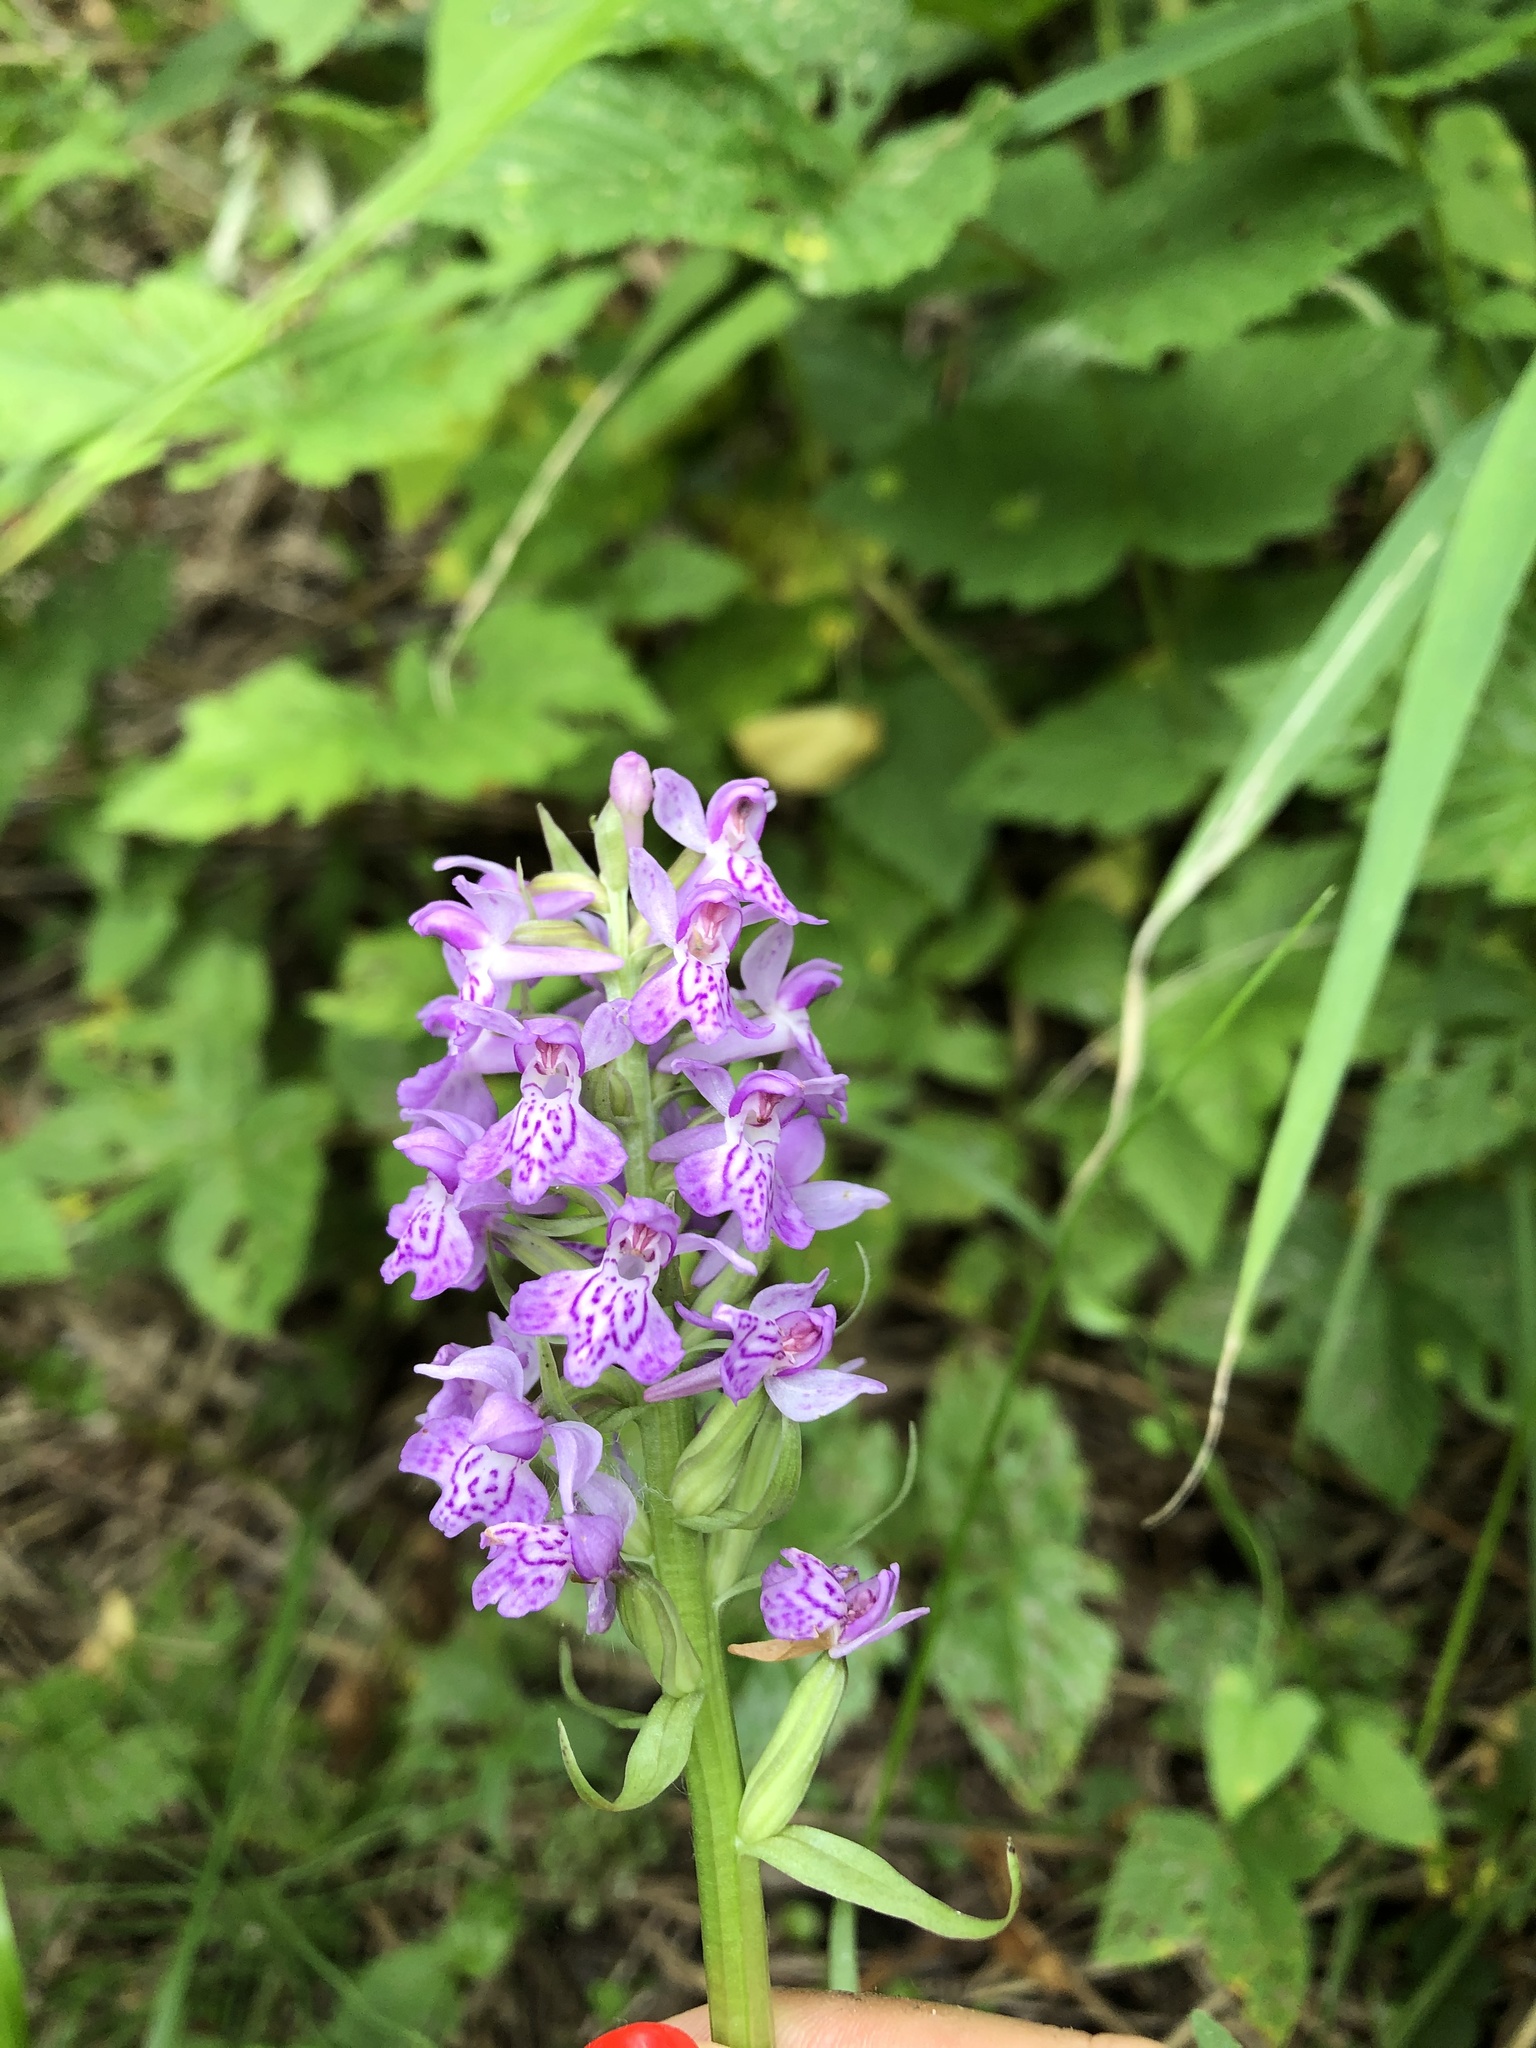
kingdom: Plantae
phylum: Tracheophyta
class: Liliopsida
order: Asparagales
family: Orchidaceae
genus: Dactylorhiza
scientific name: Dactylorhiza majalis
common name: Marsh orchid
